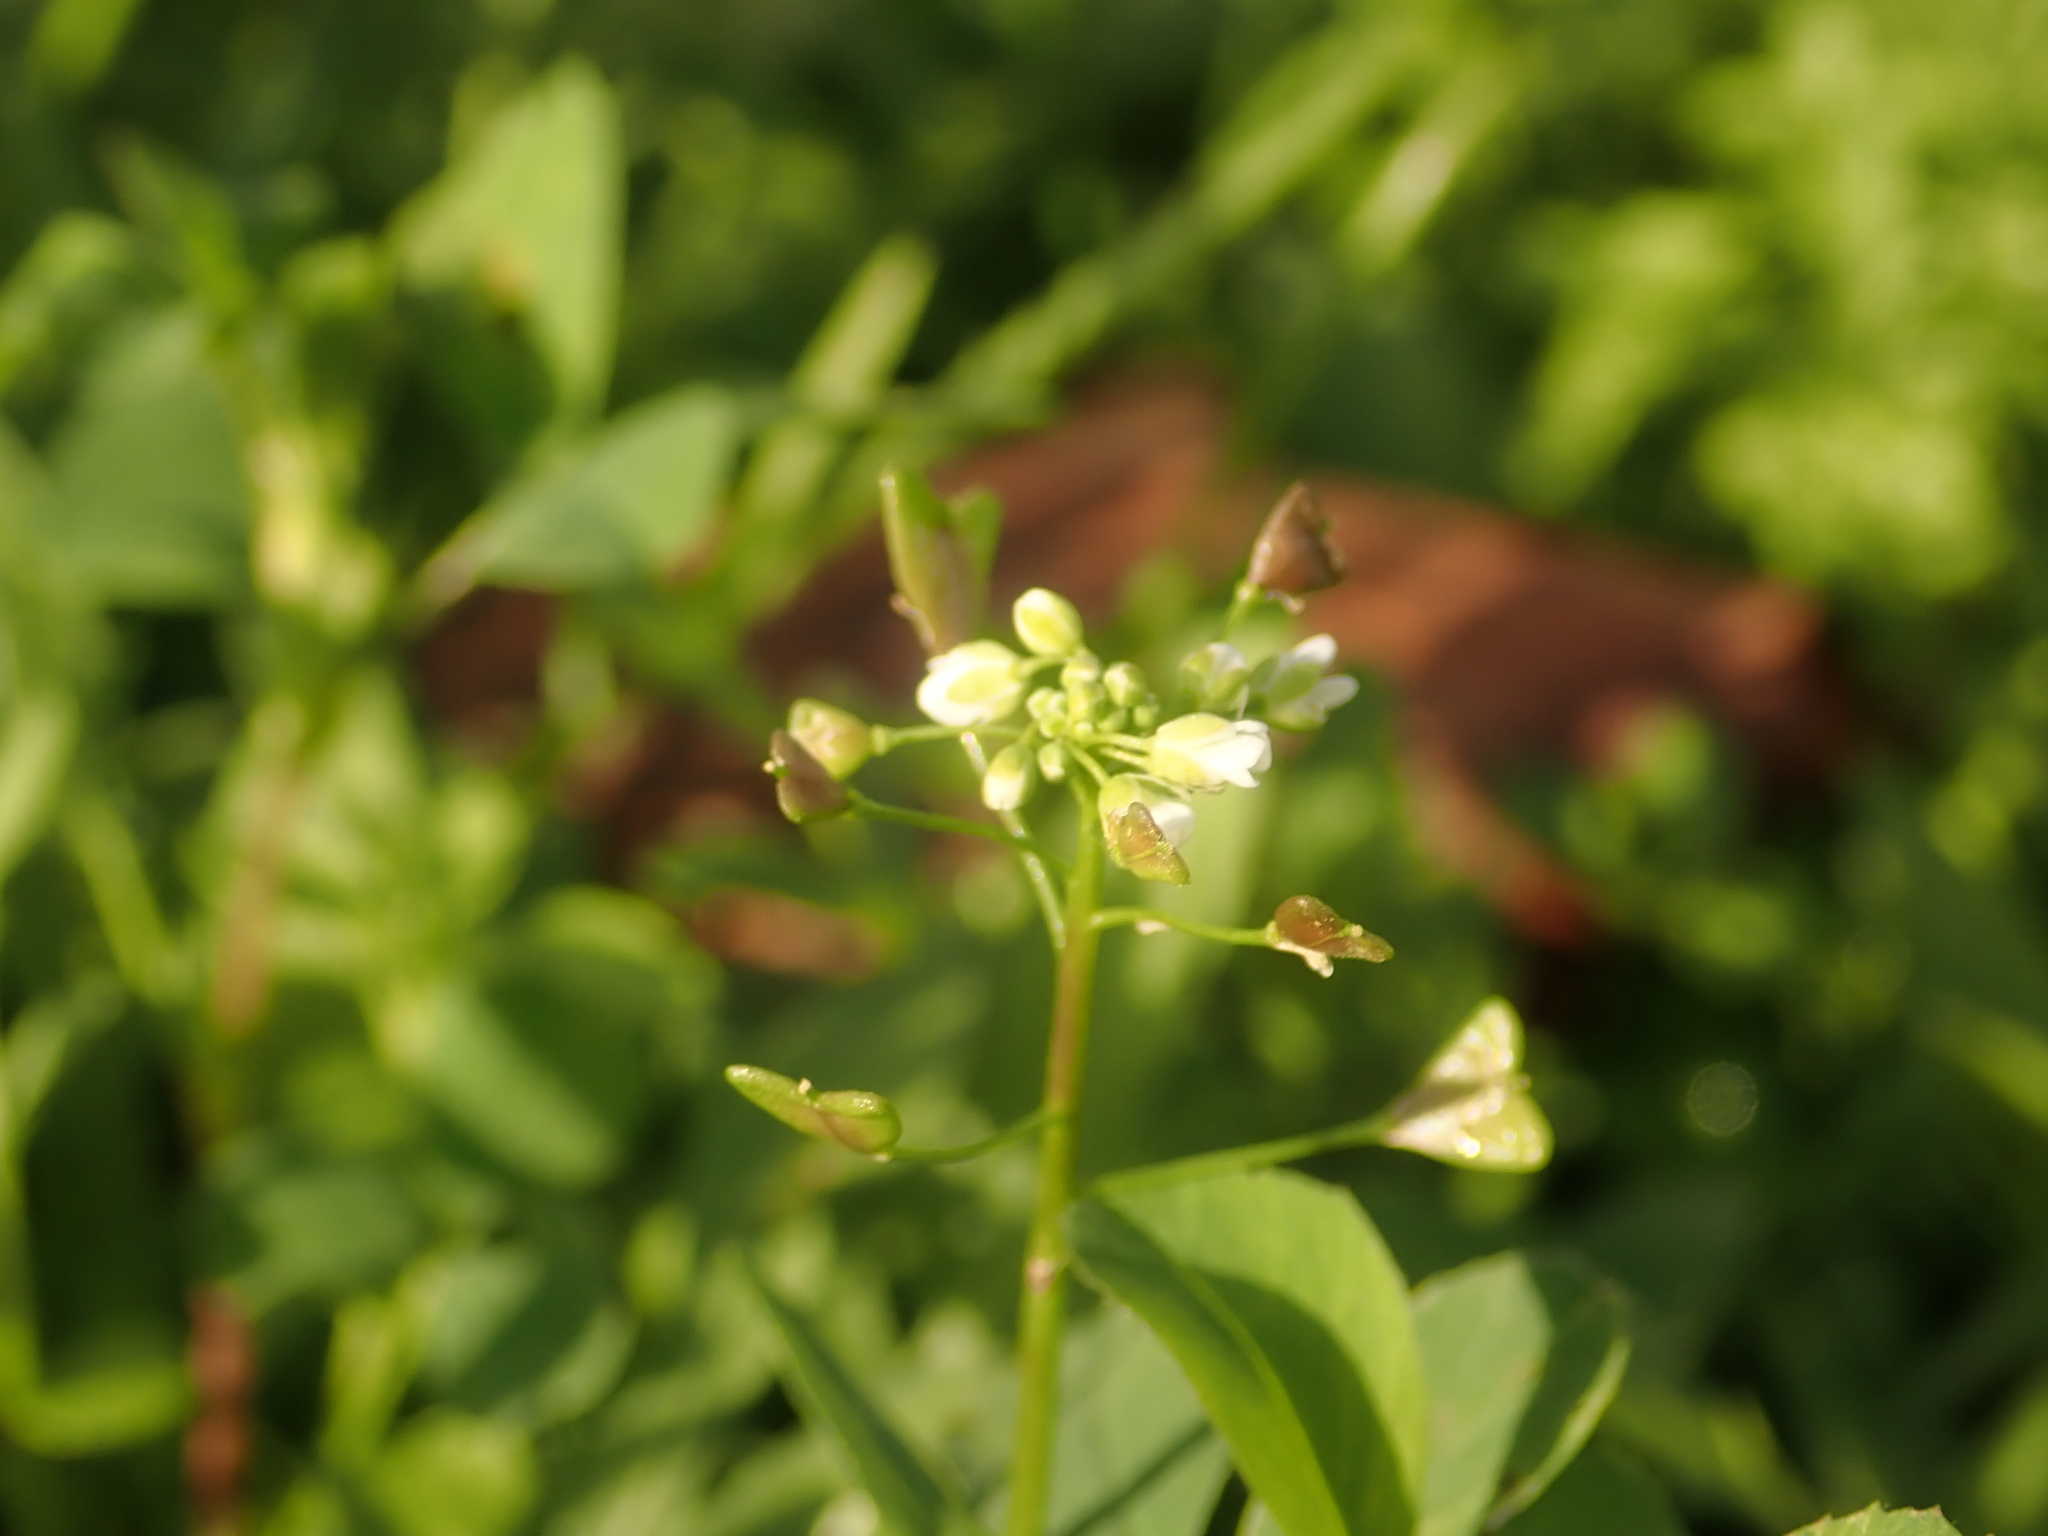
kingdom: Plantae
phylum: Tracheophyta
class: Magnoliopsida
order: Brassicales
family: Brassicaceae
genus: Capsella
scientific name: Capsella bursa-pastoris
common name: Shepherd's purse
